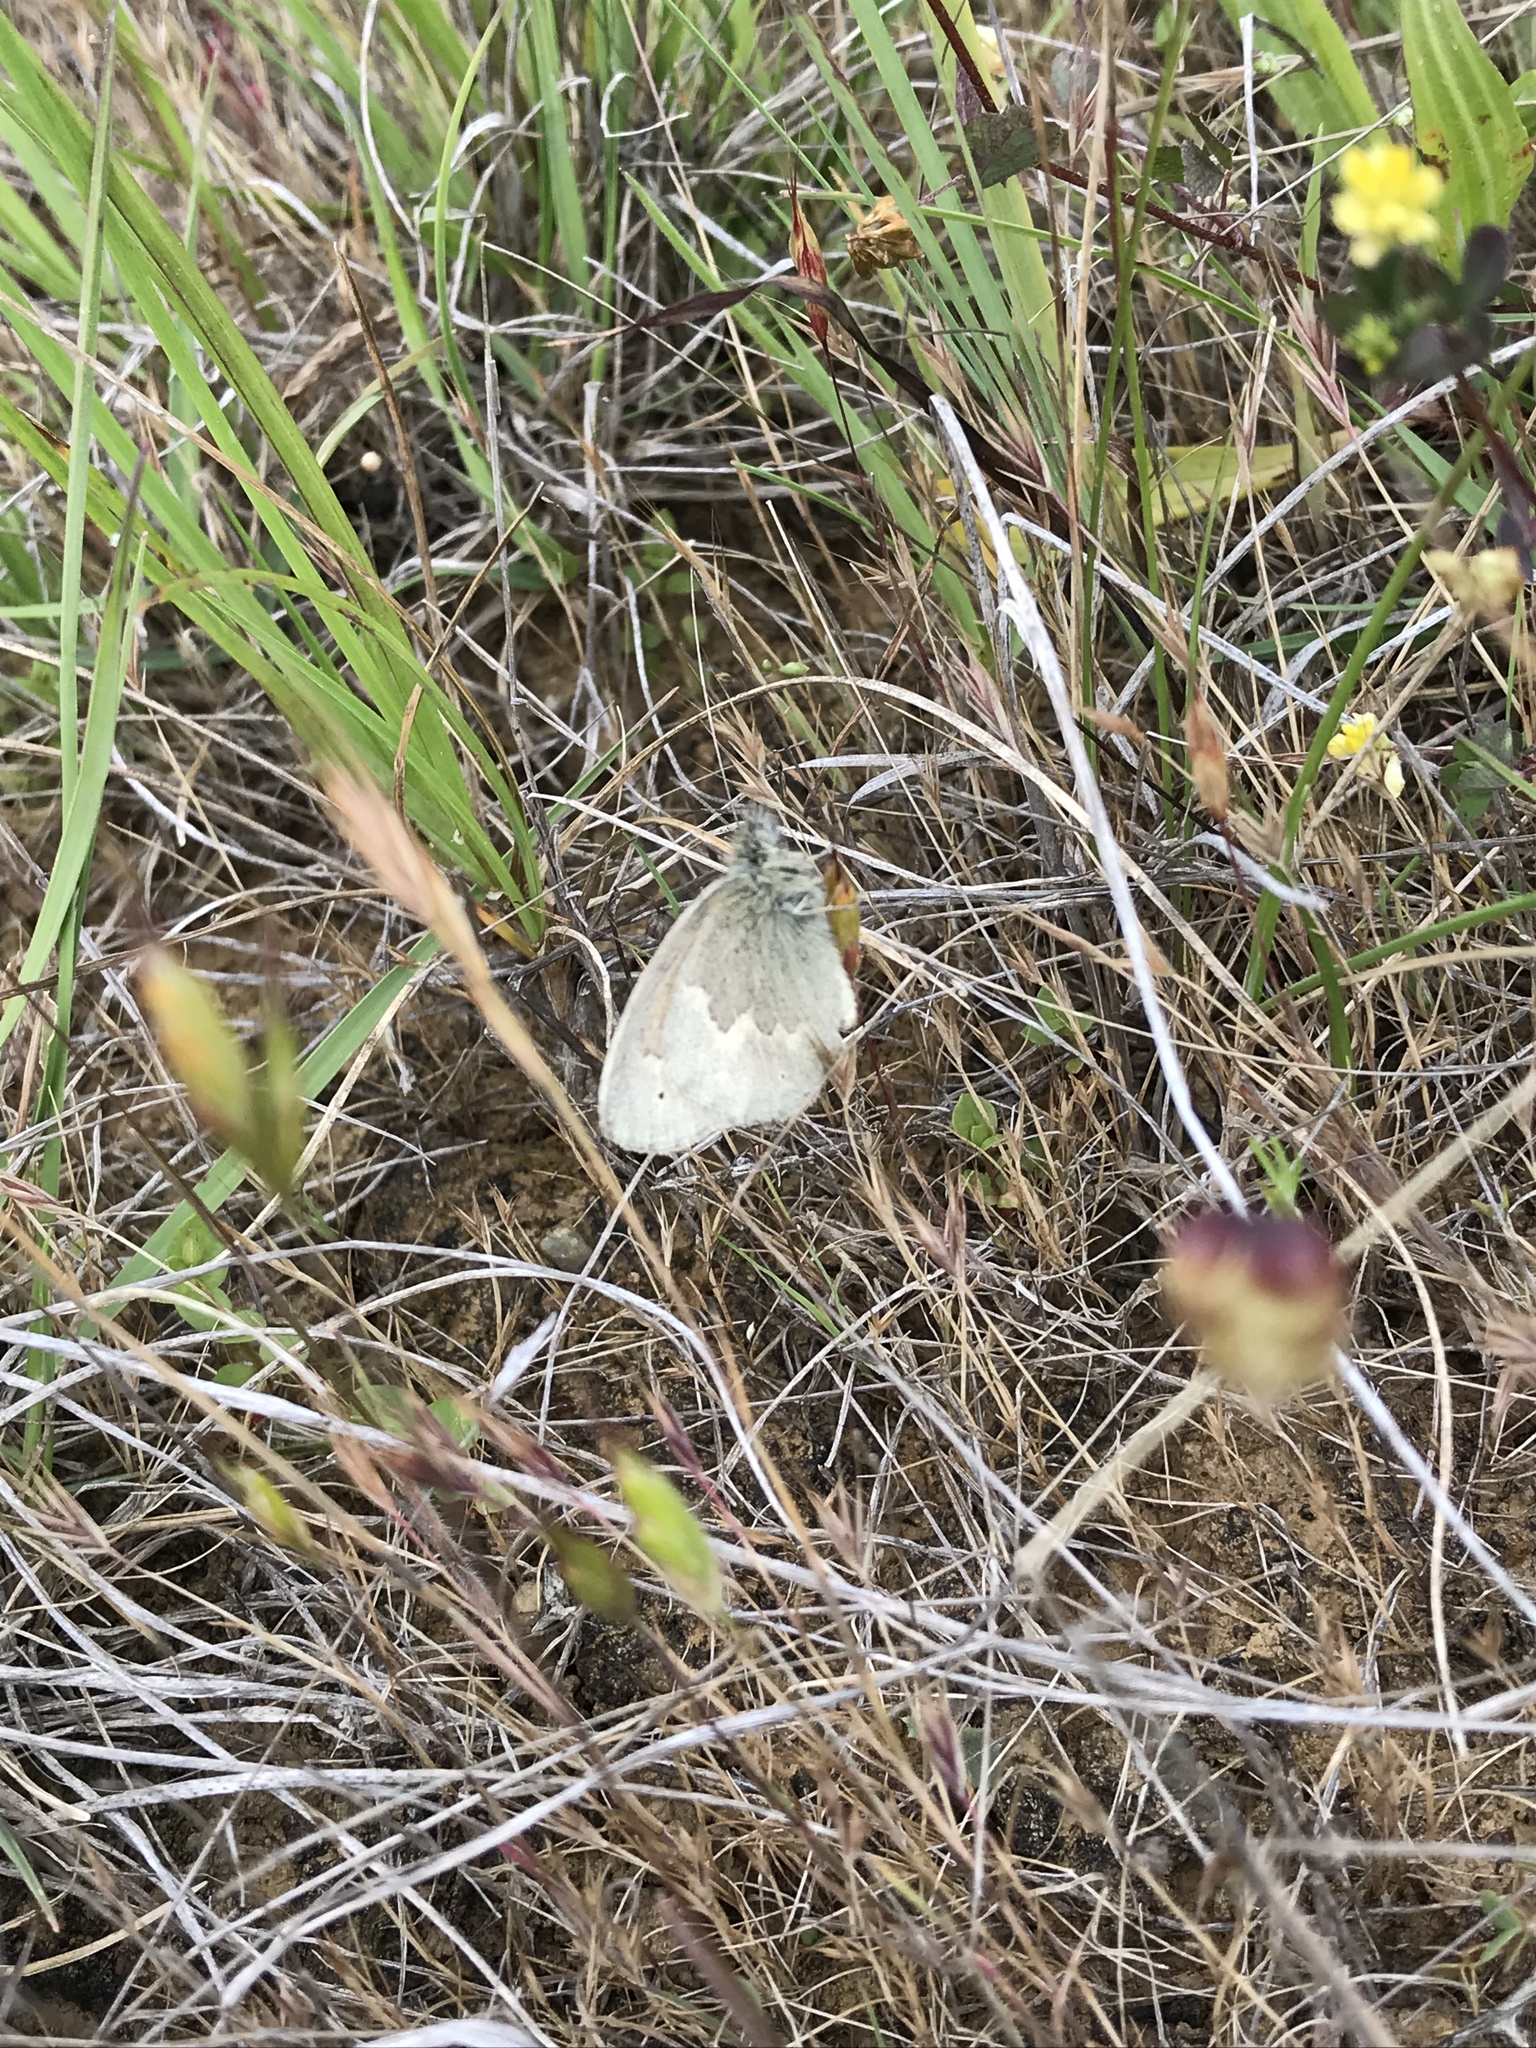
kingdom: Animalia
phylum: Arthropoda
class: Insecta
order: Lepidoptera
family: Nymphalidae
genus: Coenonympha
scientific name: Coenonympha california
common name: Common ringlet
